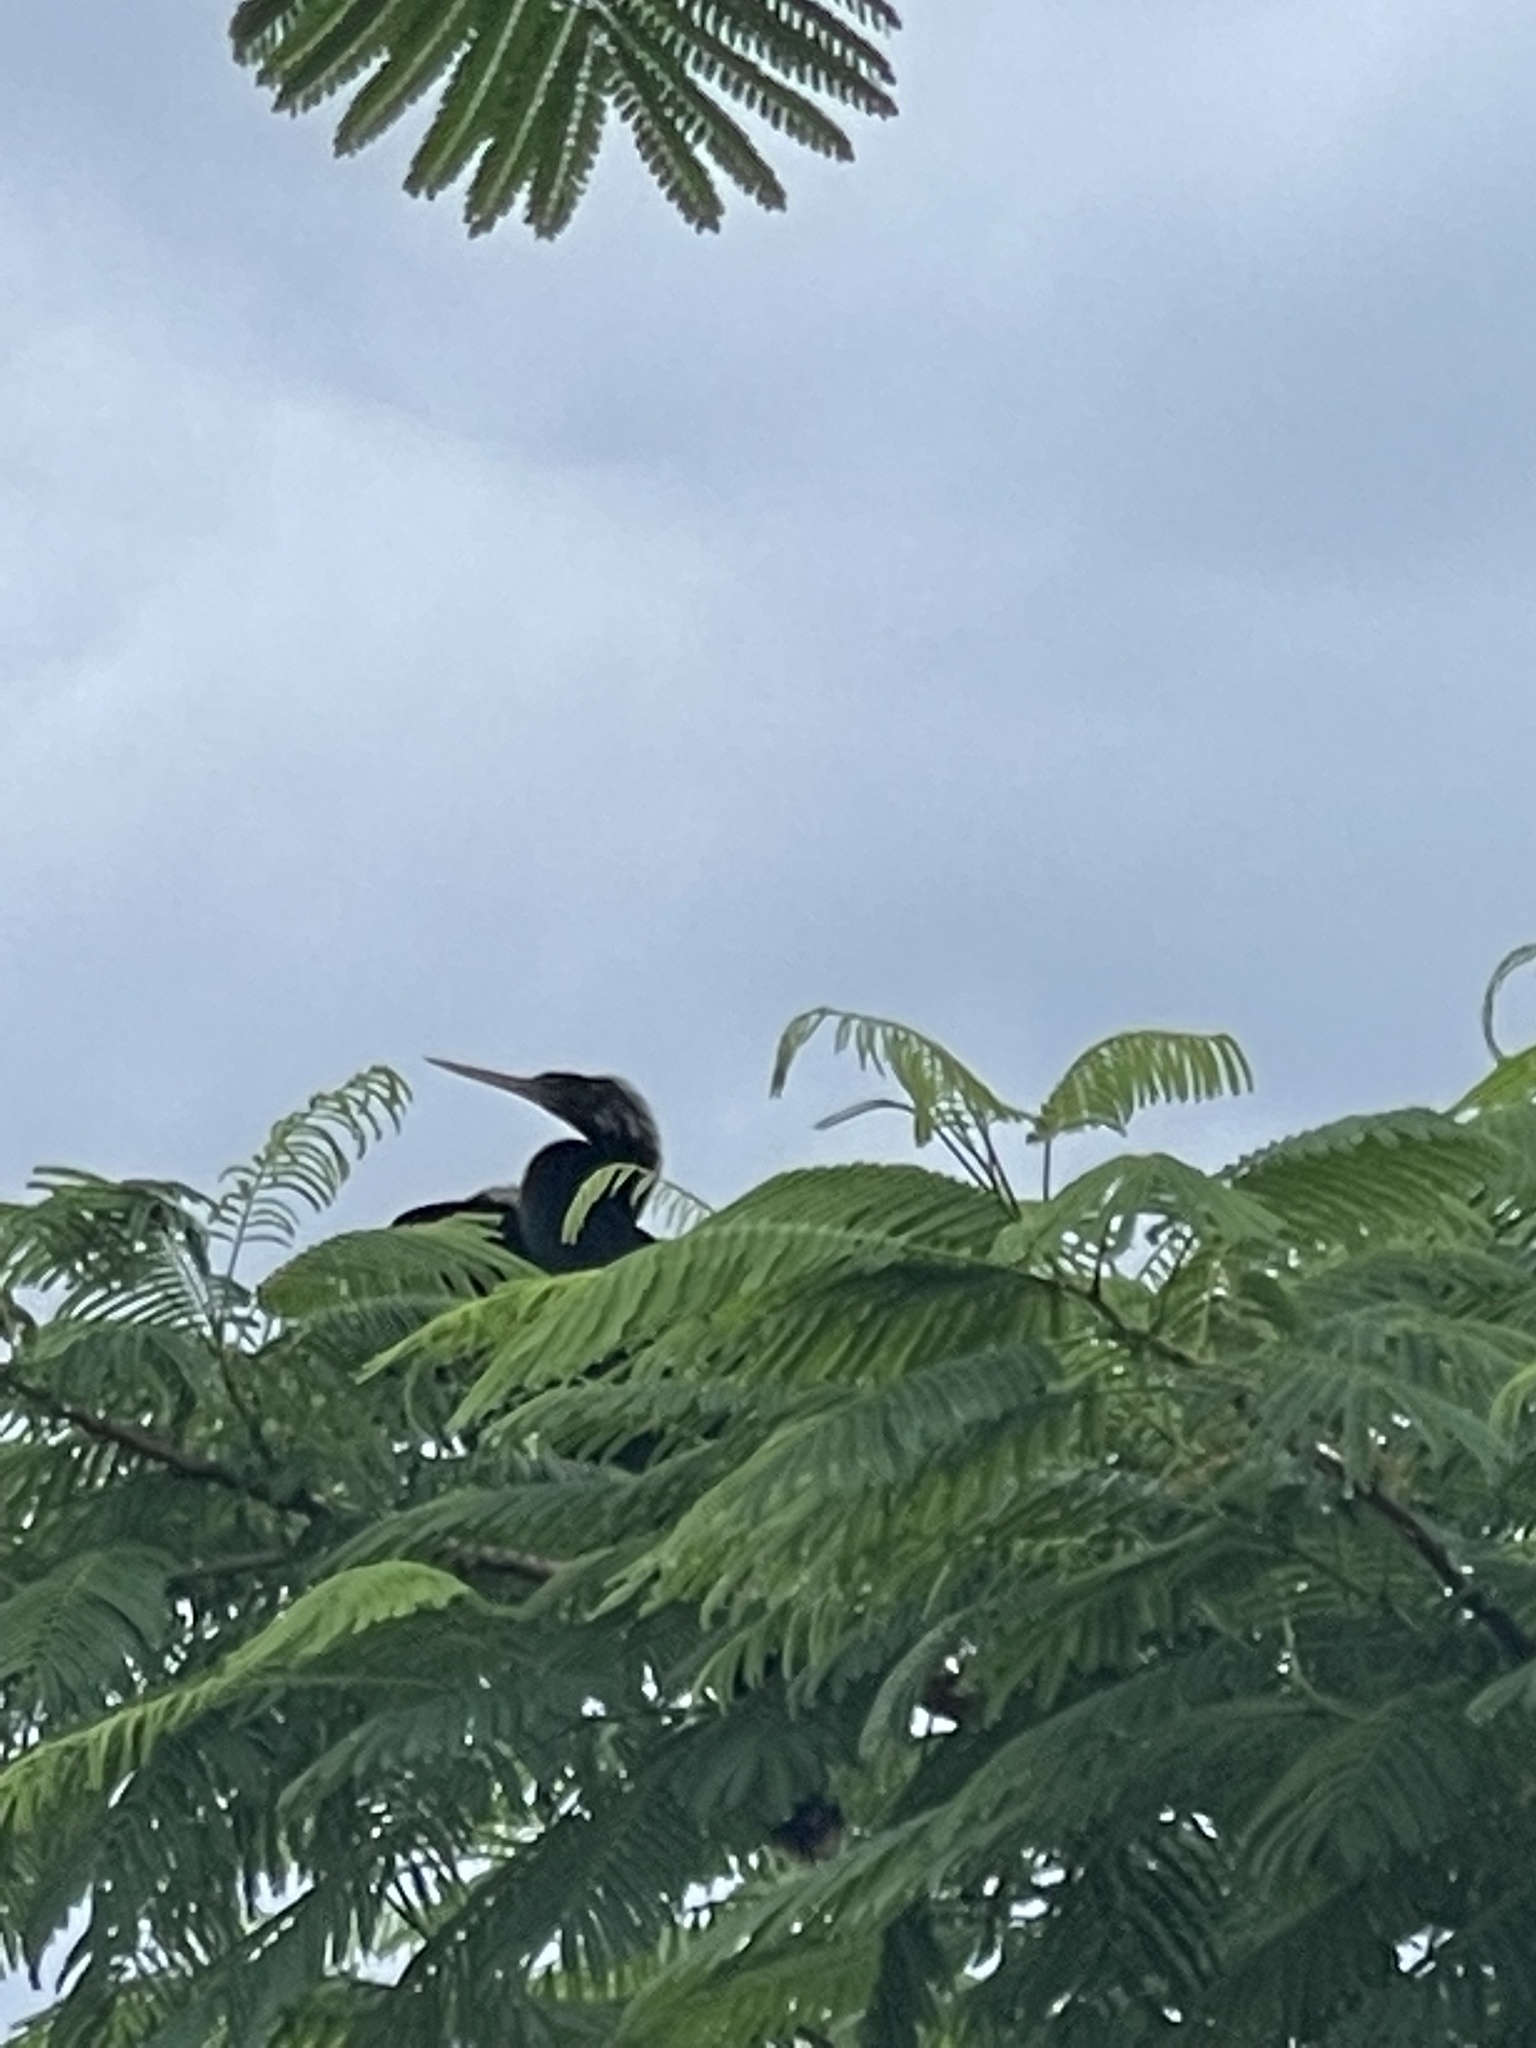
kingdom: Animalia
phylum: Chordata
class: Aves
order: Suliformes
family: Anhingidae
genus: Anhinga
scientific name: Anhinga anhinga
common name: Anhinga
